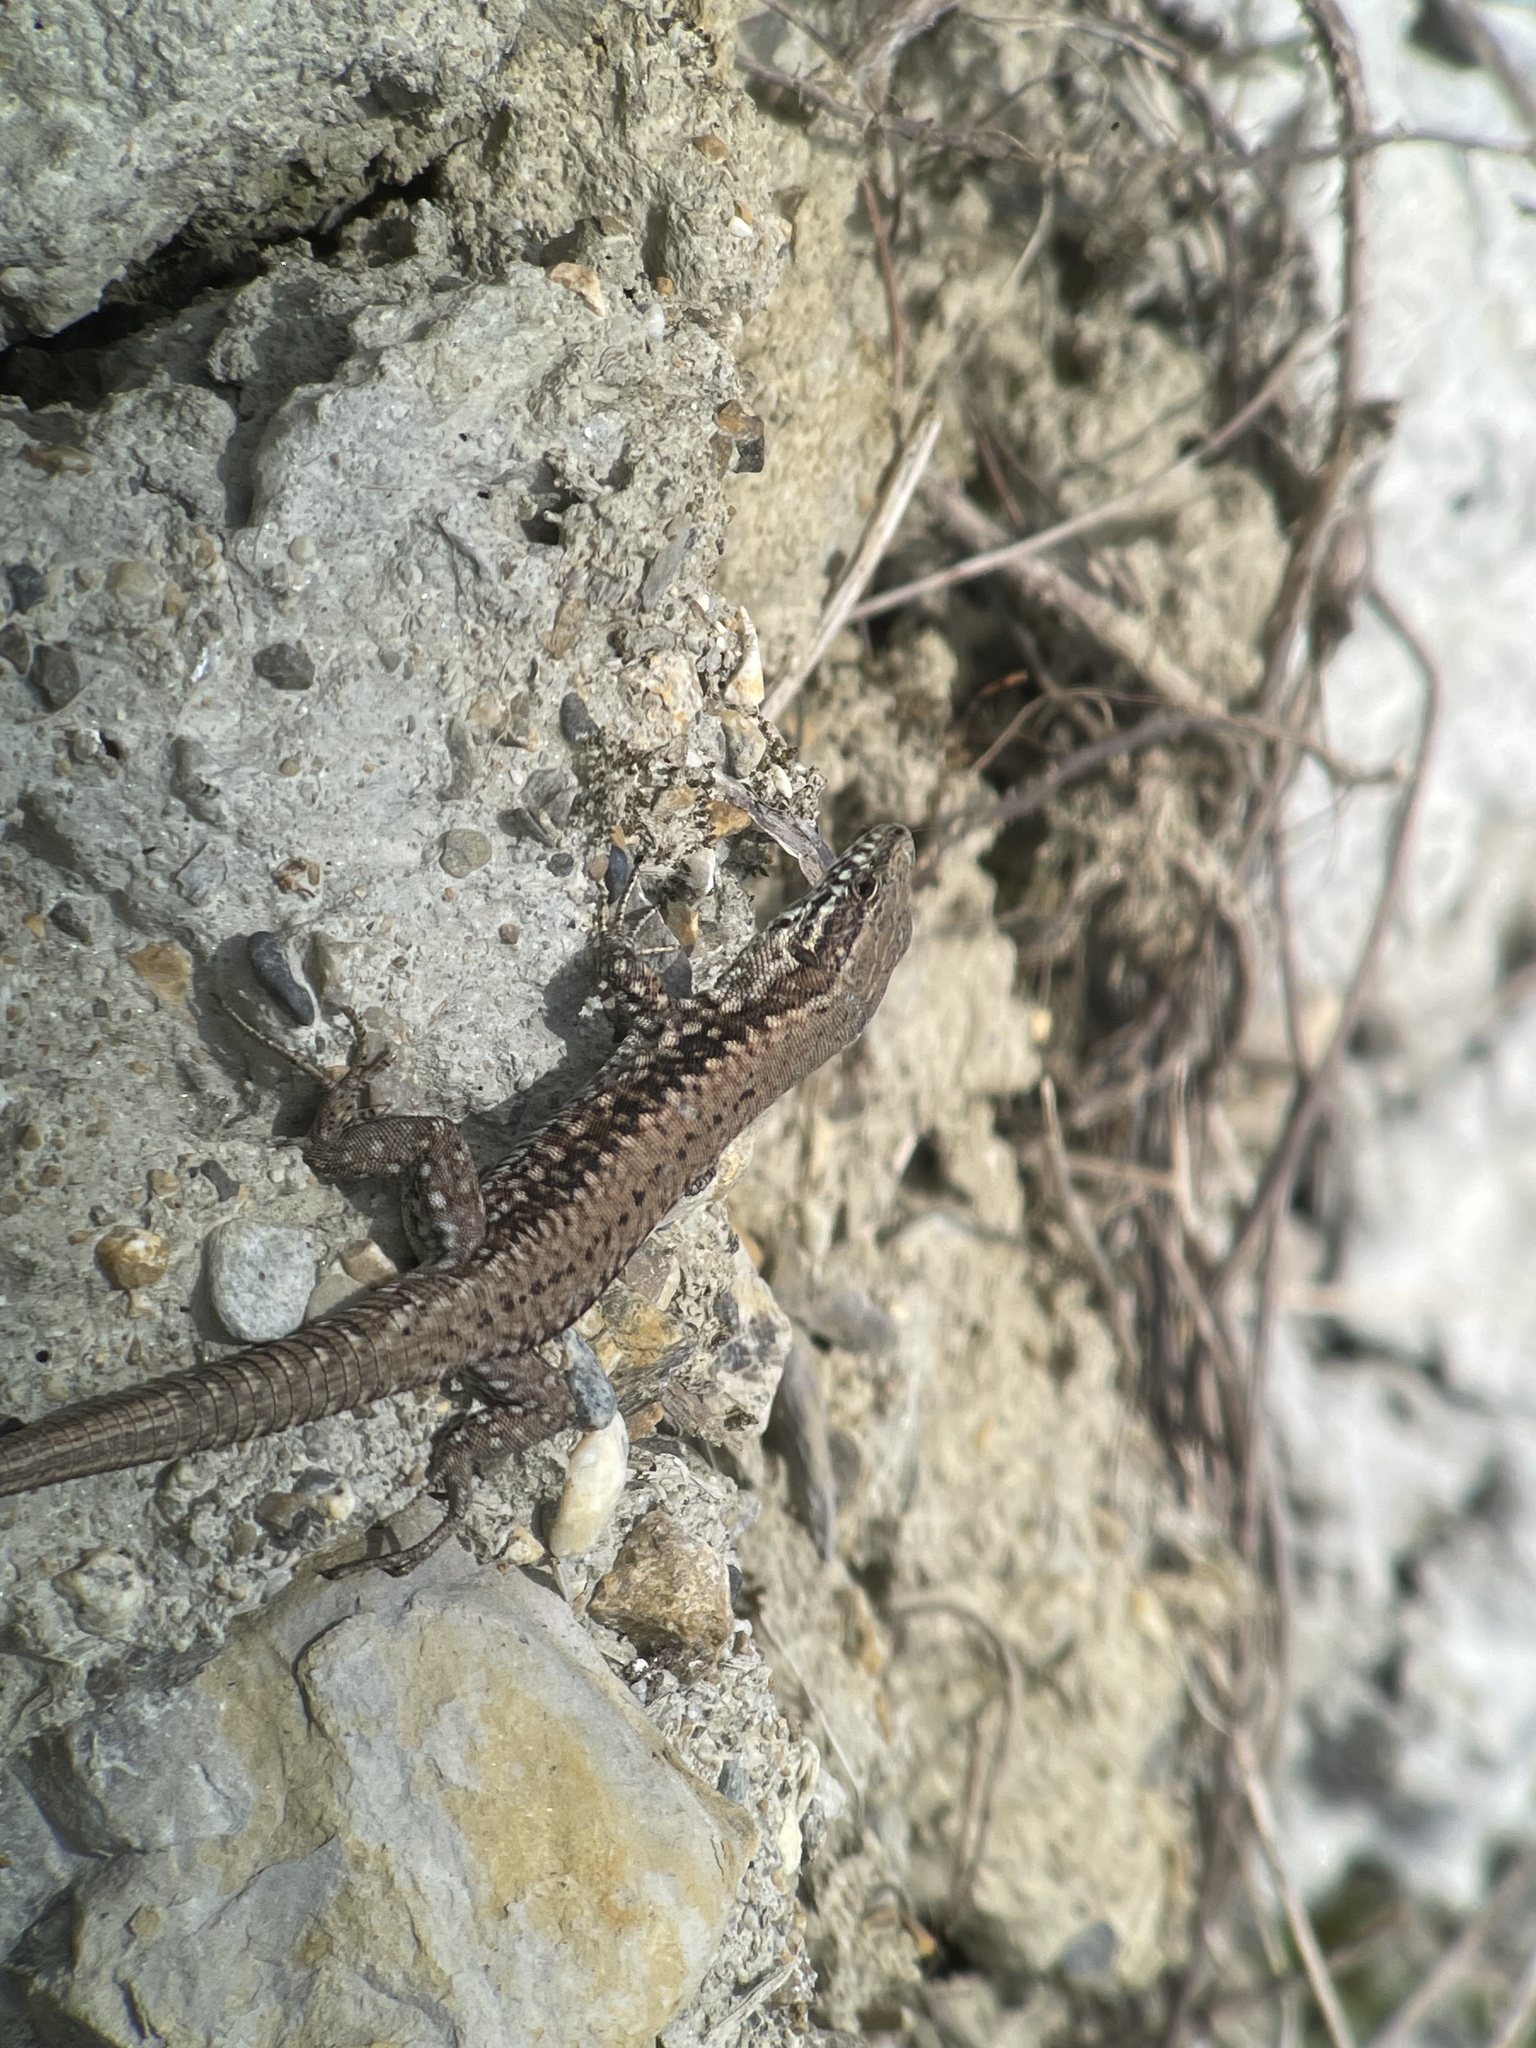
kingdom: Animalia
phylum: Chordata
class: Squamata
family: Lacertidae
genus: Podarcis
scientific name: Podarcis muralis
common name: Common wall lizard
